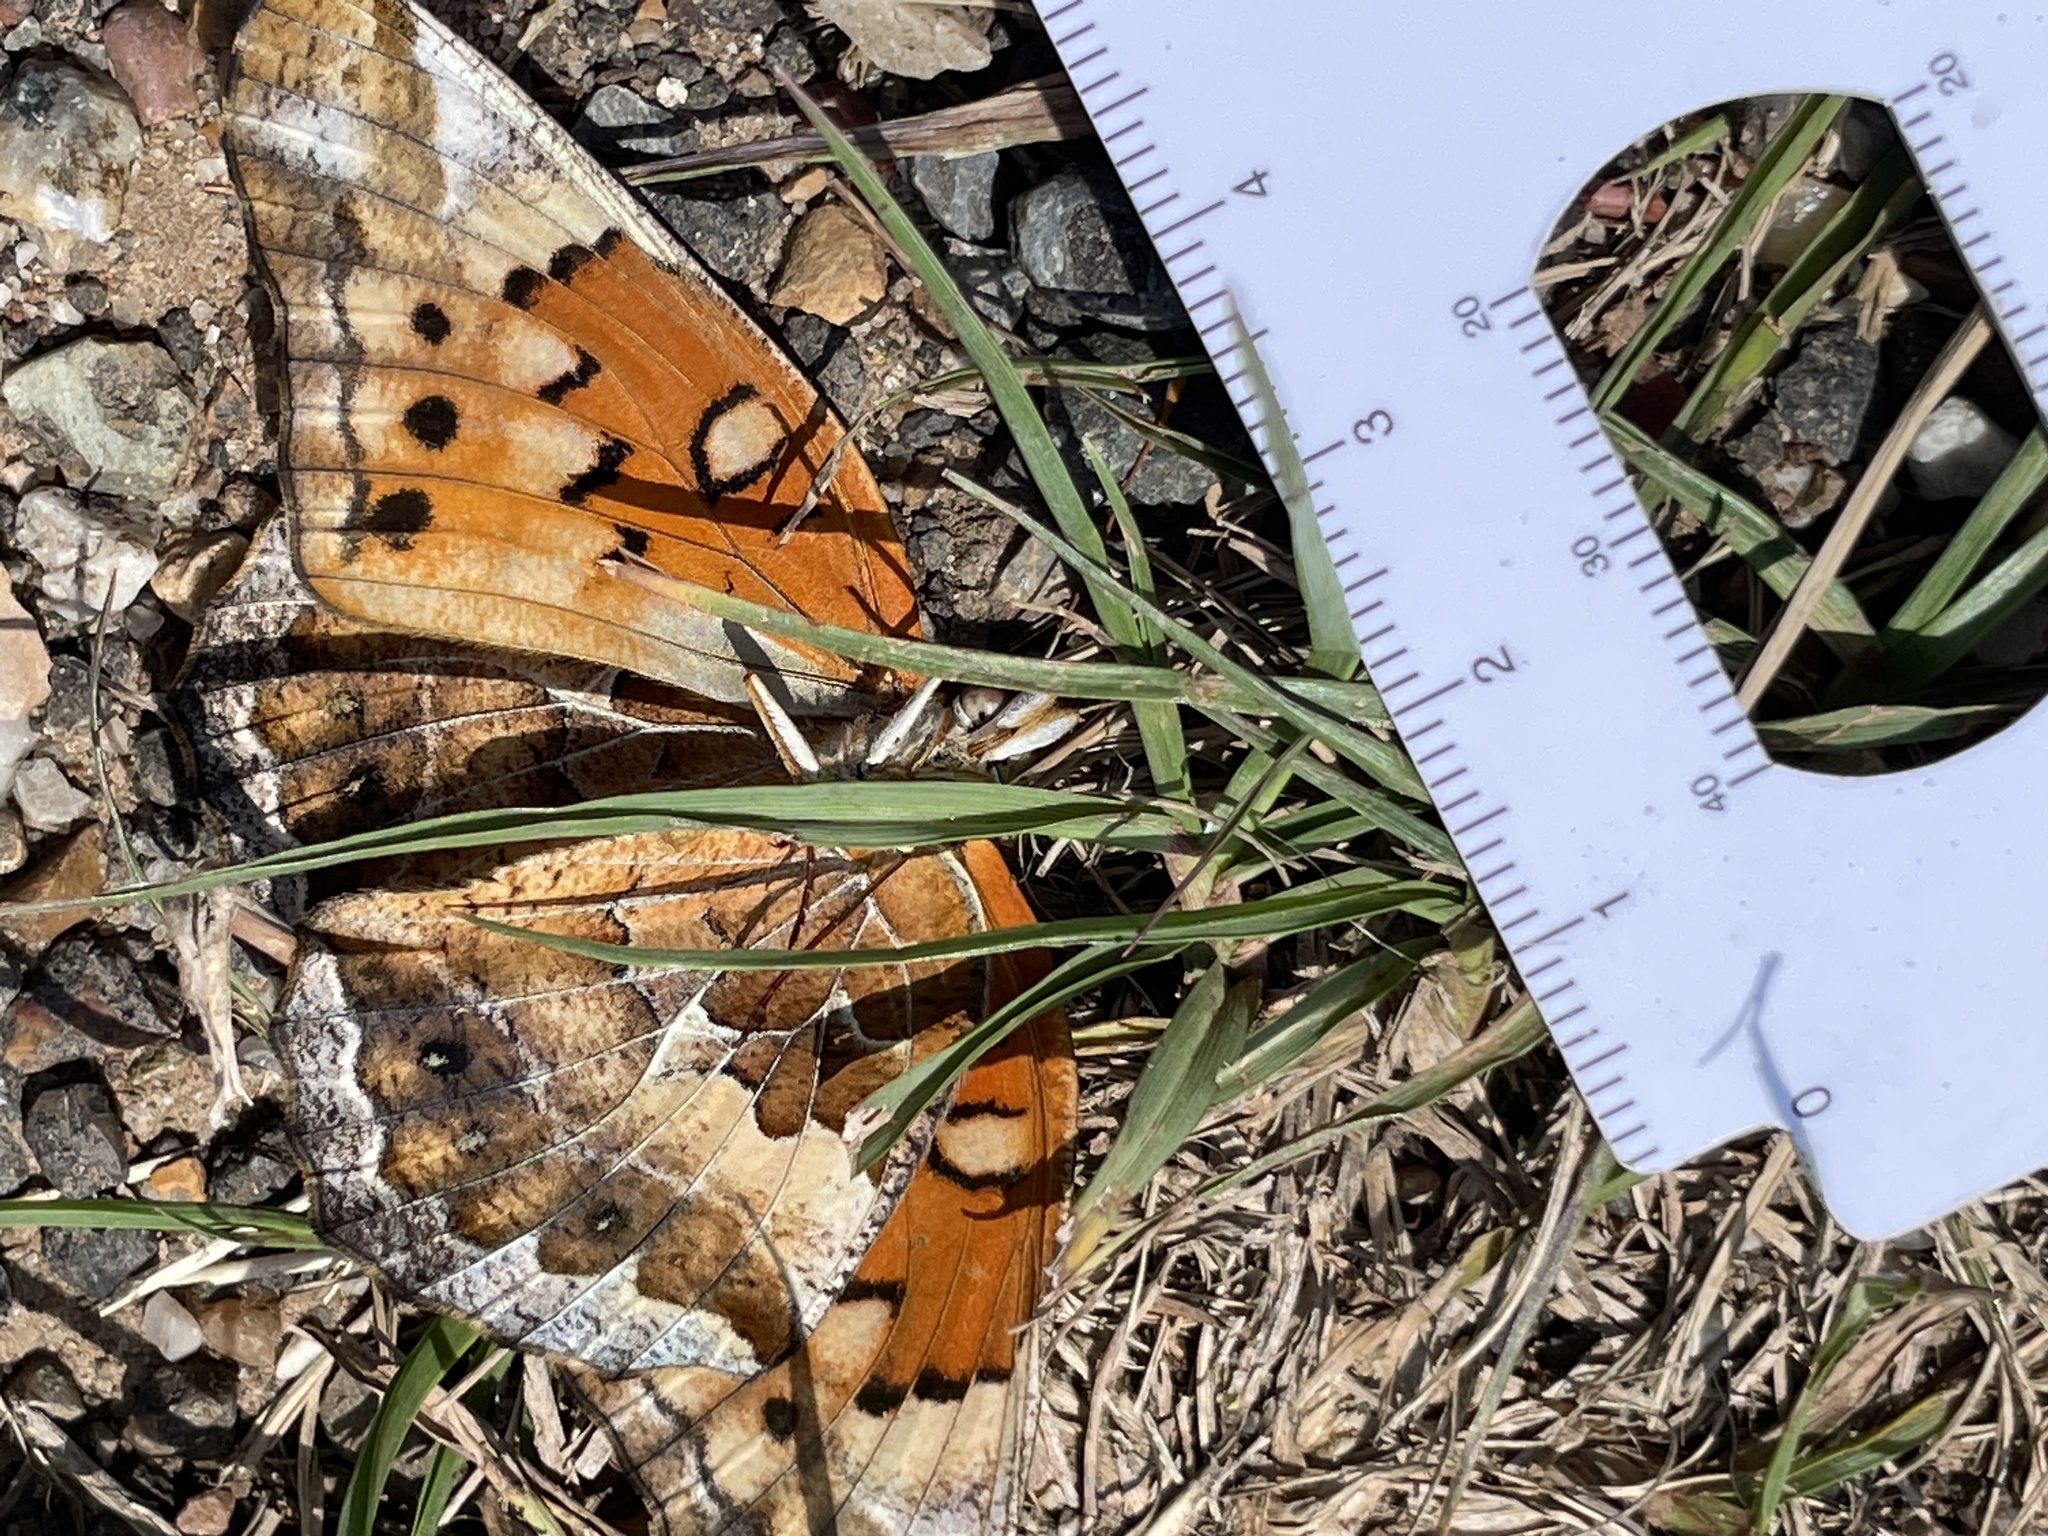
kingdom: Animalia
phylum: Arthropoda
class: Insecta
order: Lepidoptera
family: Nymphalidae
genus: Euptoieta
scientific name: Euptoieta claudia
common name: Variegated fritillary
